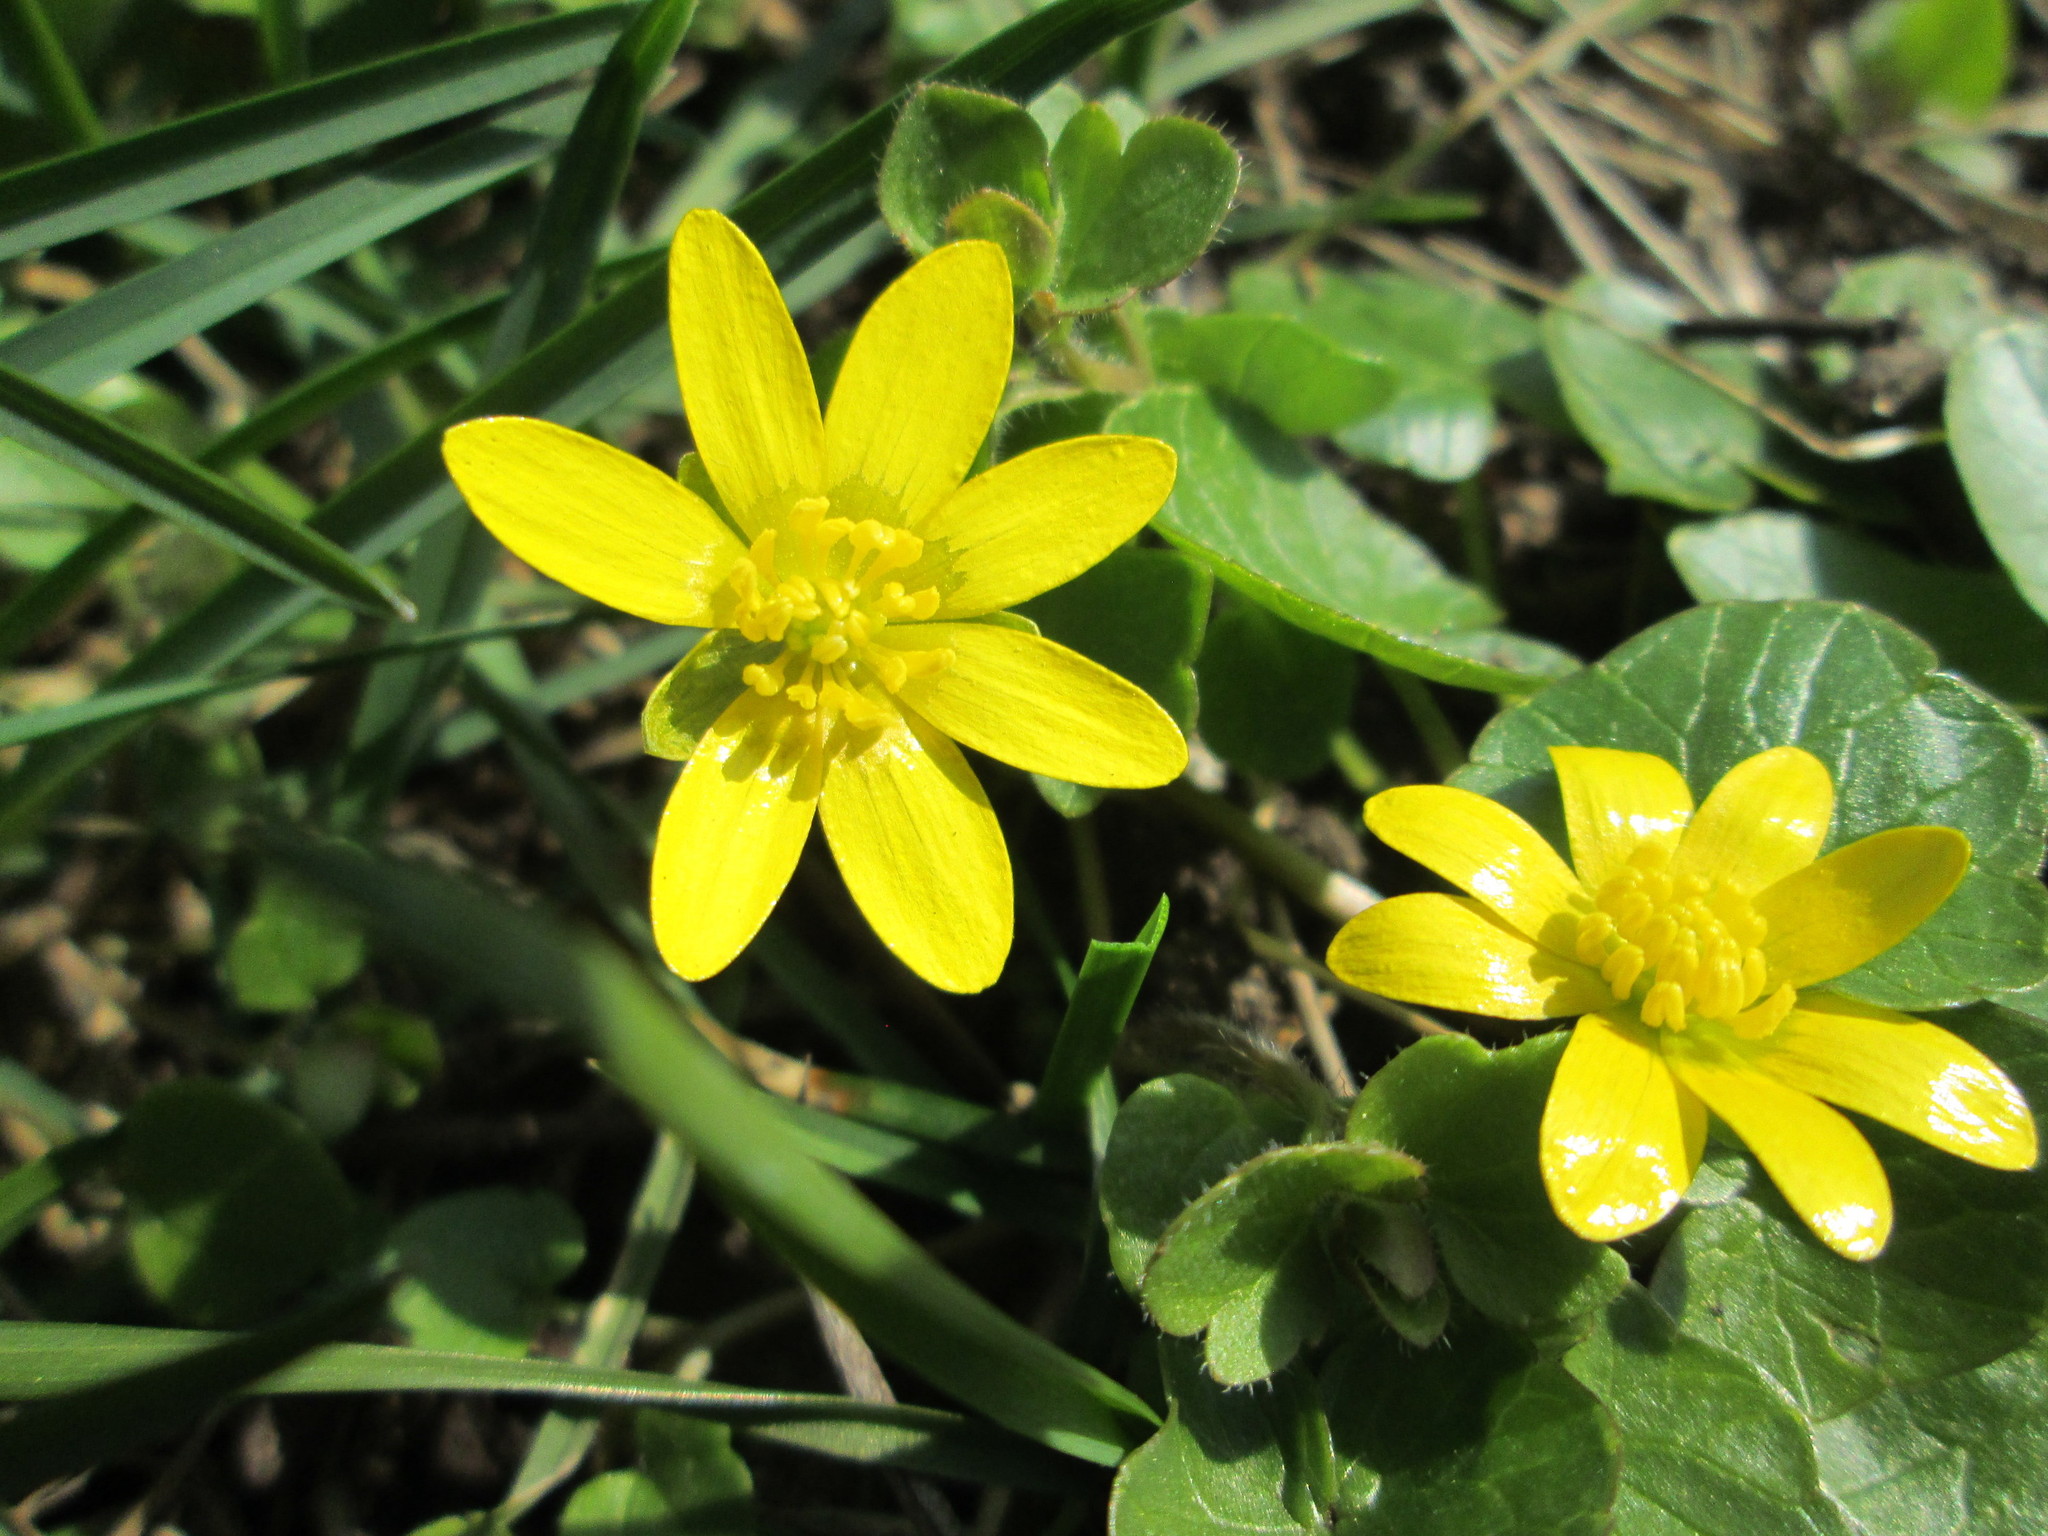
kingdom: Plantae
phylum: Tracheophyta
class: Magnoliopsida
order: Ranunculales
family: Ranunculaceae
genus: Ficaria
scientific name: Ficaria verna
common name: Lesser celandine
